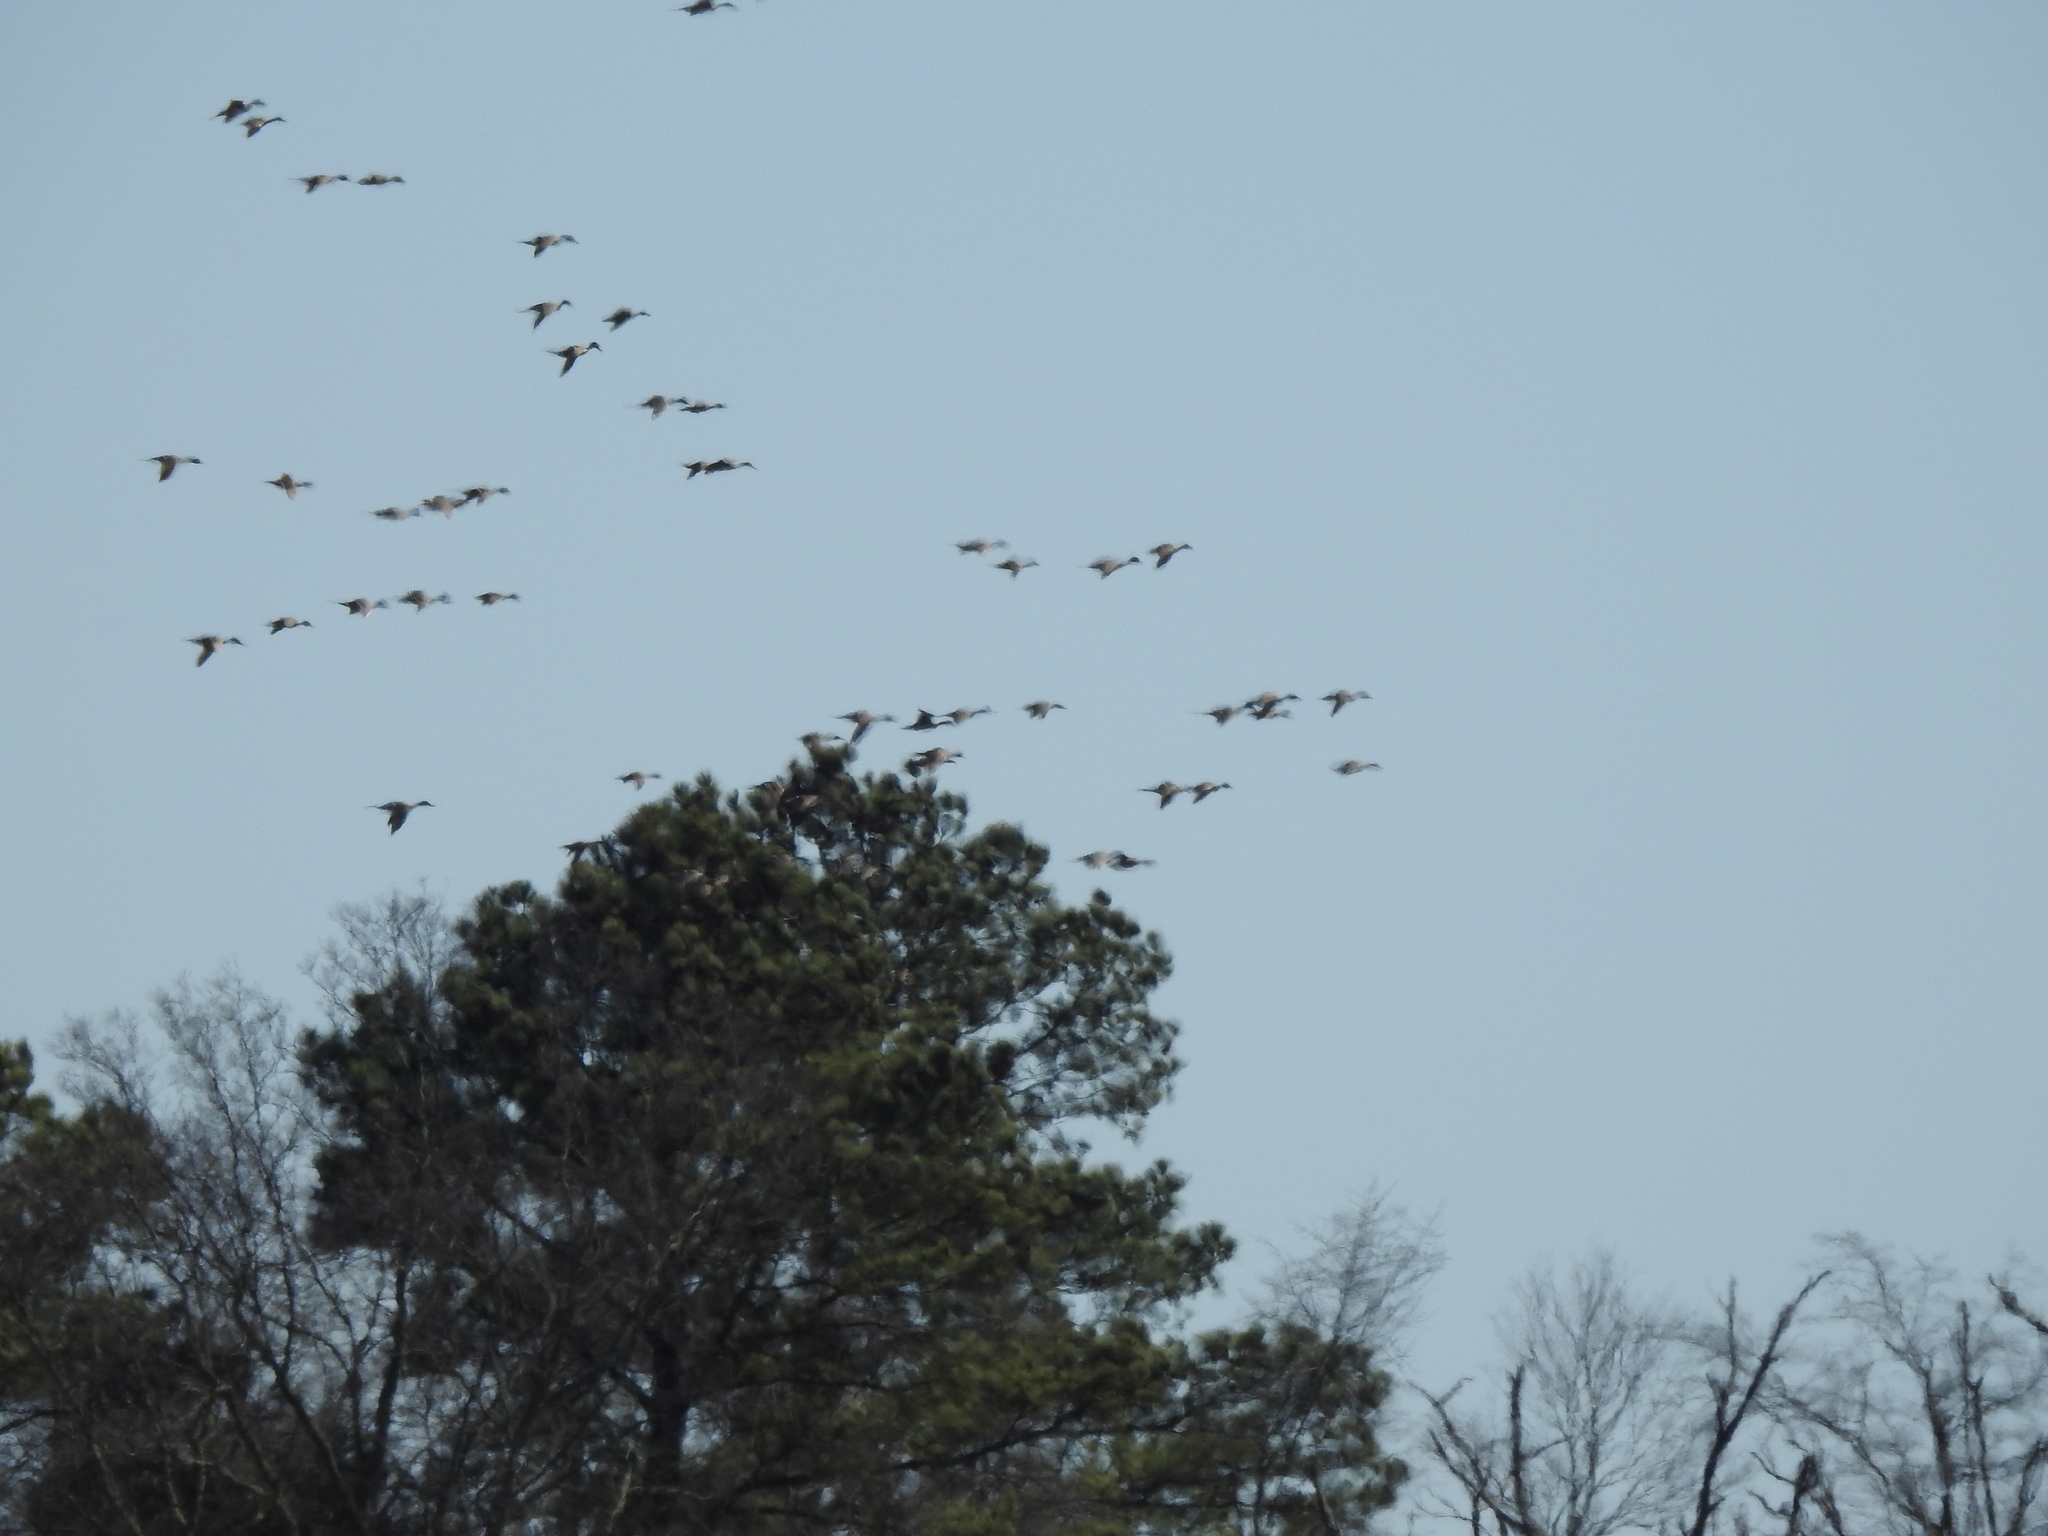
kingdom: Animalia
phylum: Chordata
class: Aves
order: Anseriformes
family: Anatidae
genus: Anas
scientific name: Anas acuta
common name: Northern pintail
